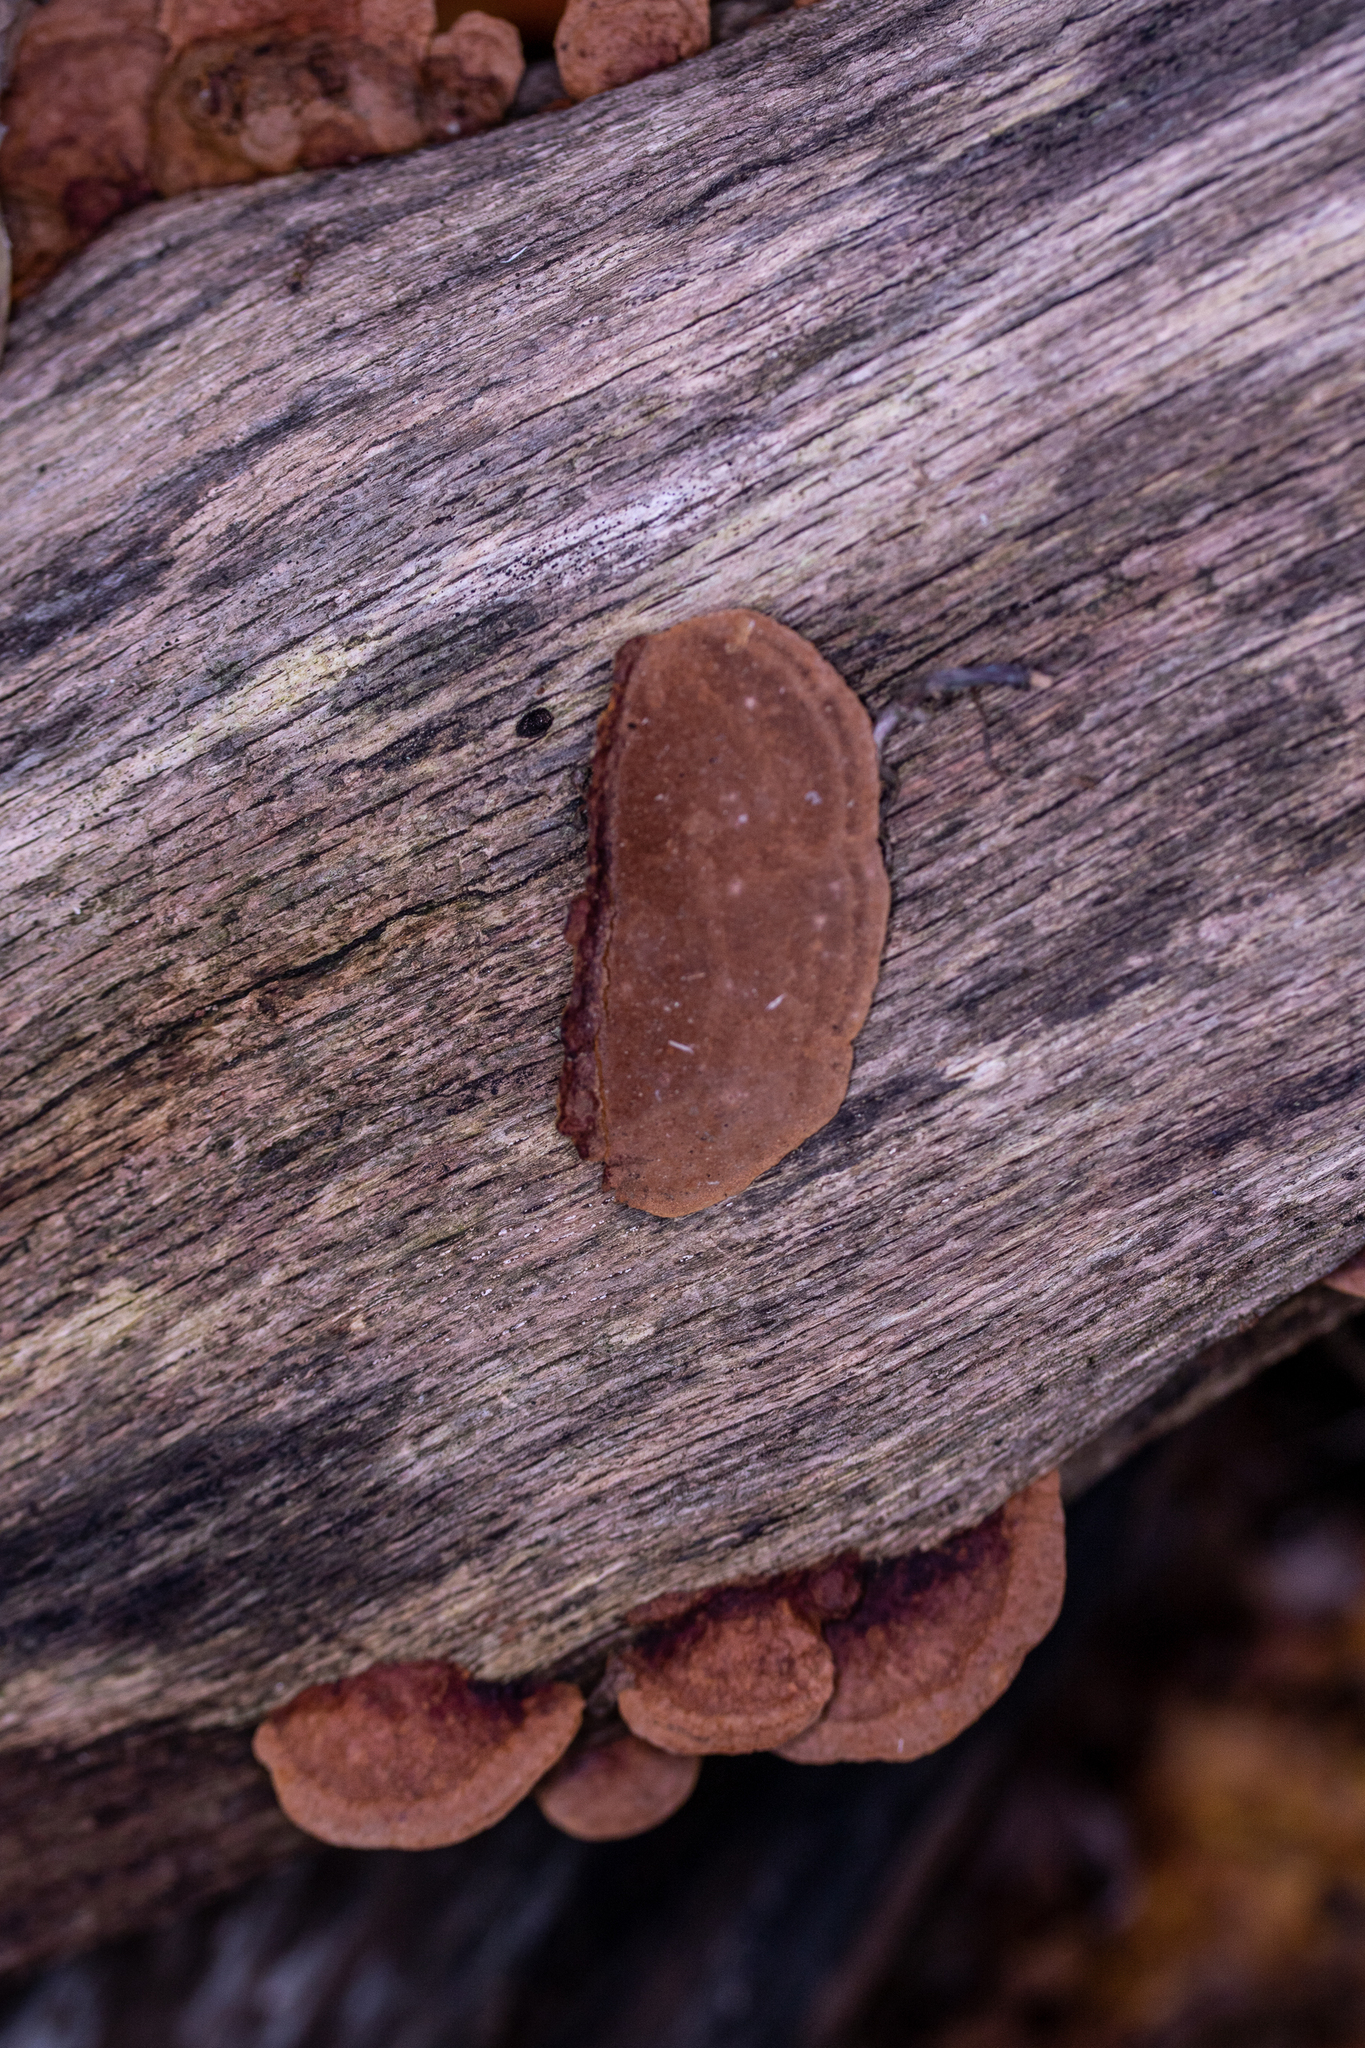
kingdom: Fungi
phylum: Basidiomycota
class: Agaricomycetes
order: Hymenochaetales
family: Hymenochaetaceae
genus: Phellinus
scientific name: Phellinus gilvus
